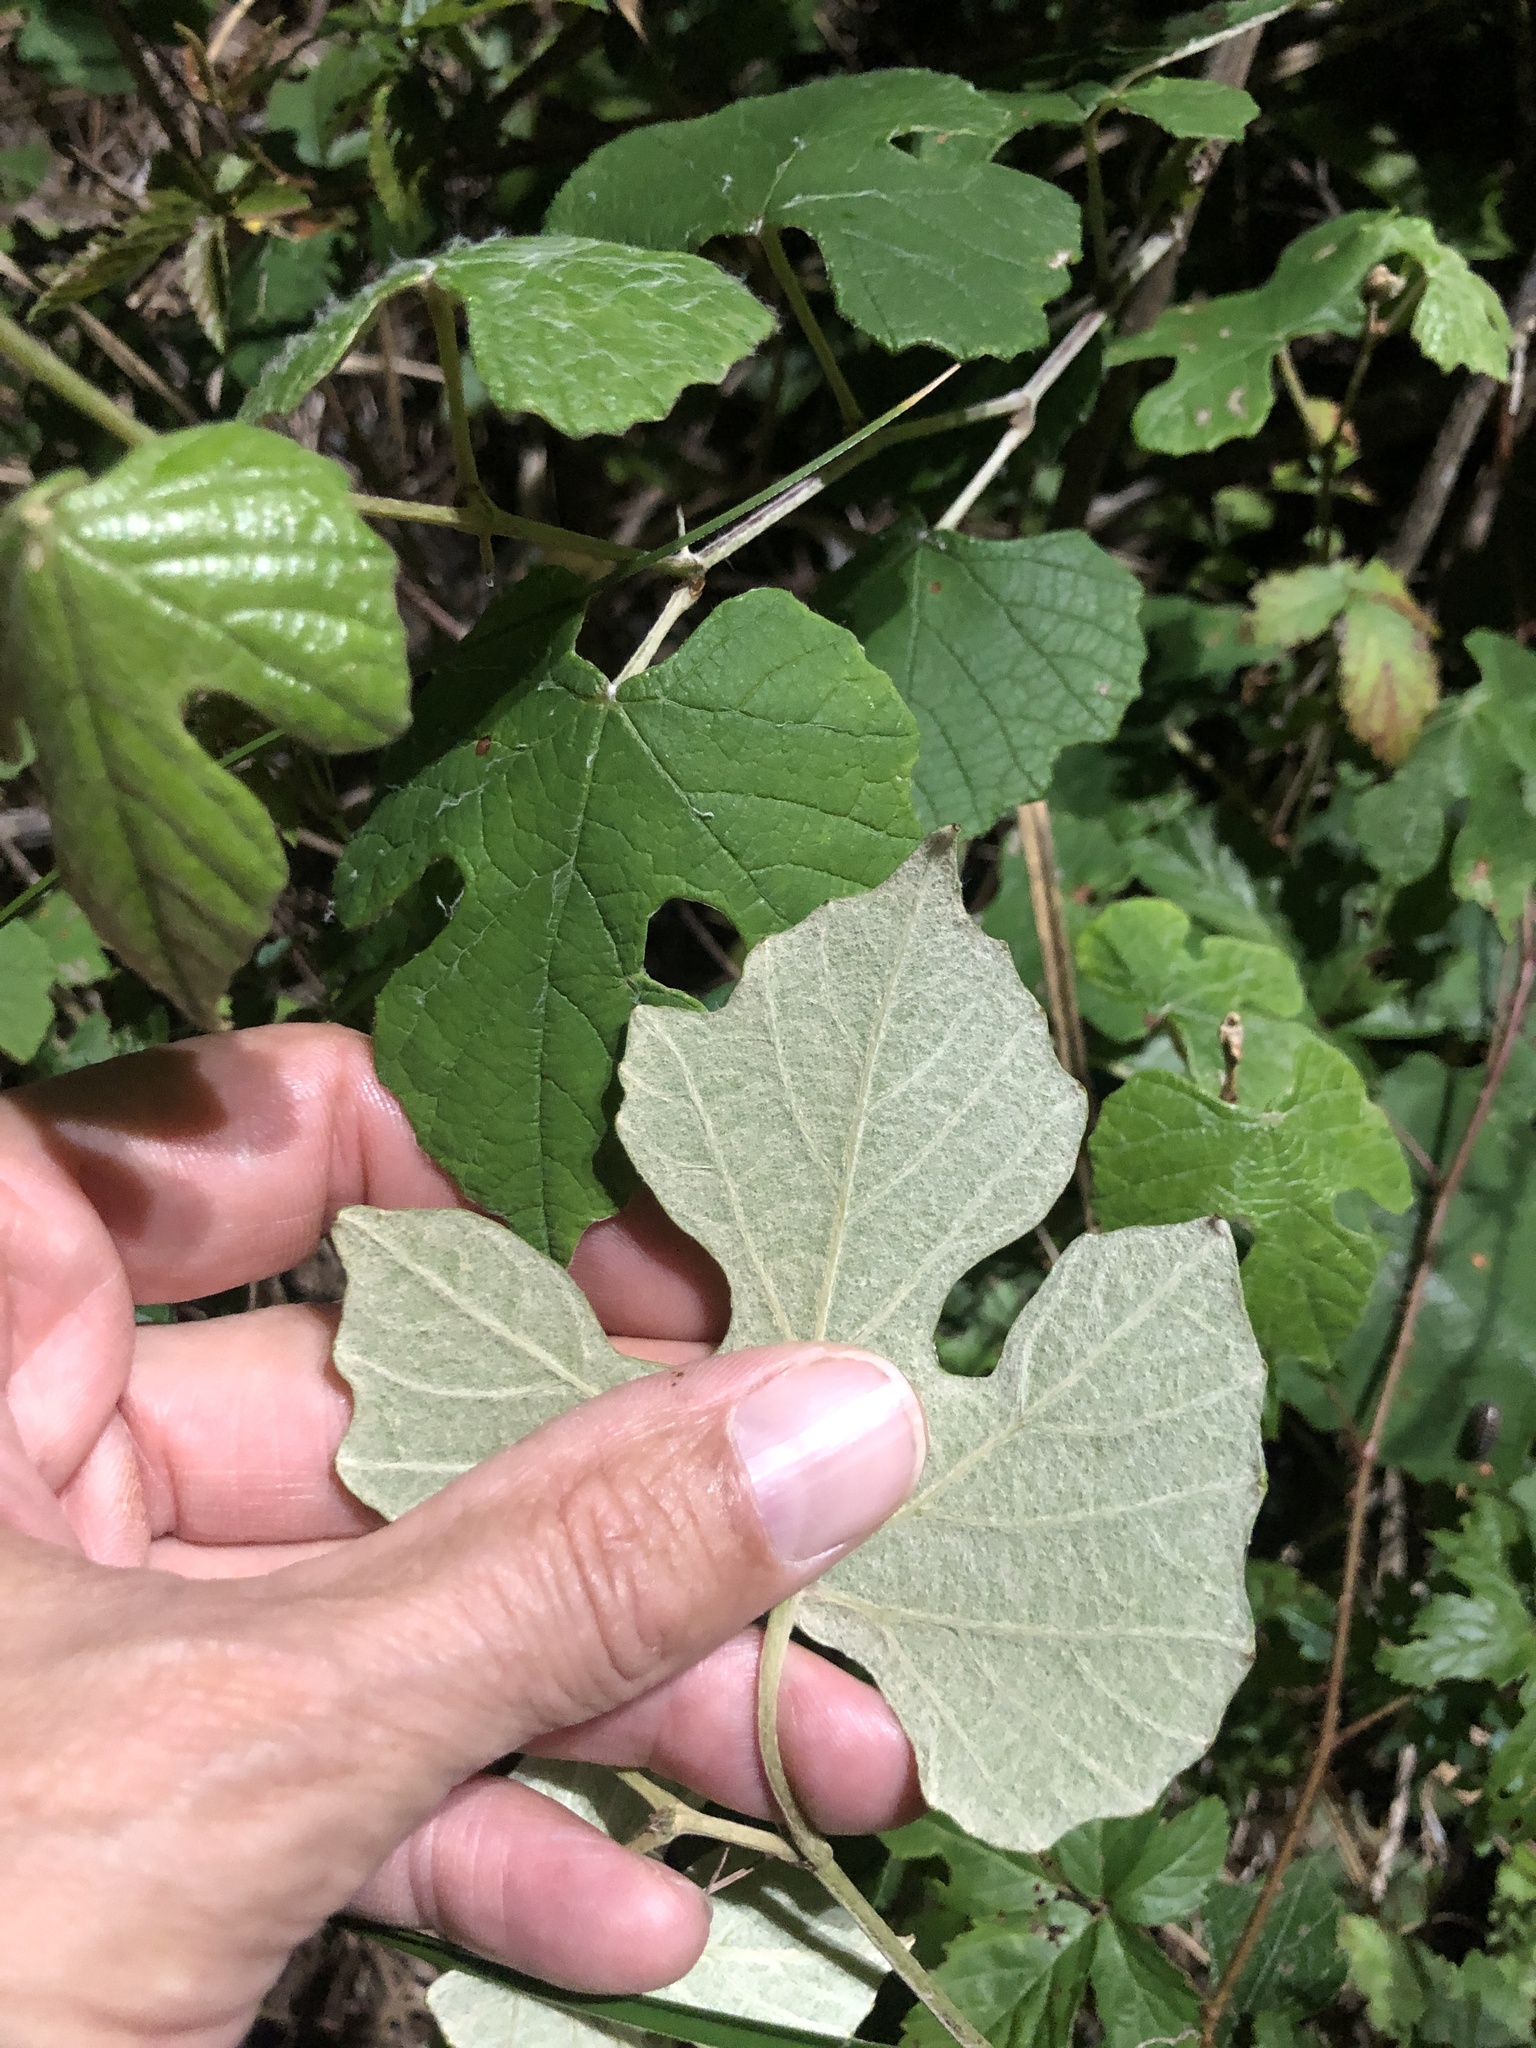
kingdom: Plantae
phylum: Tracheophyta
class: Magnoliopsida
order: Vitales
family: Vitaceae
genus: Vitis
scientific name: Vitis mustangensis
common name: Mustang grape
